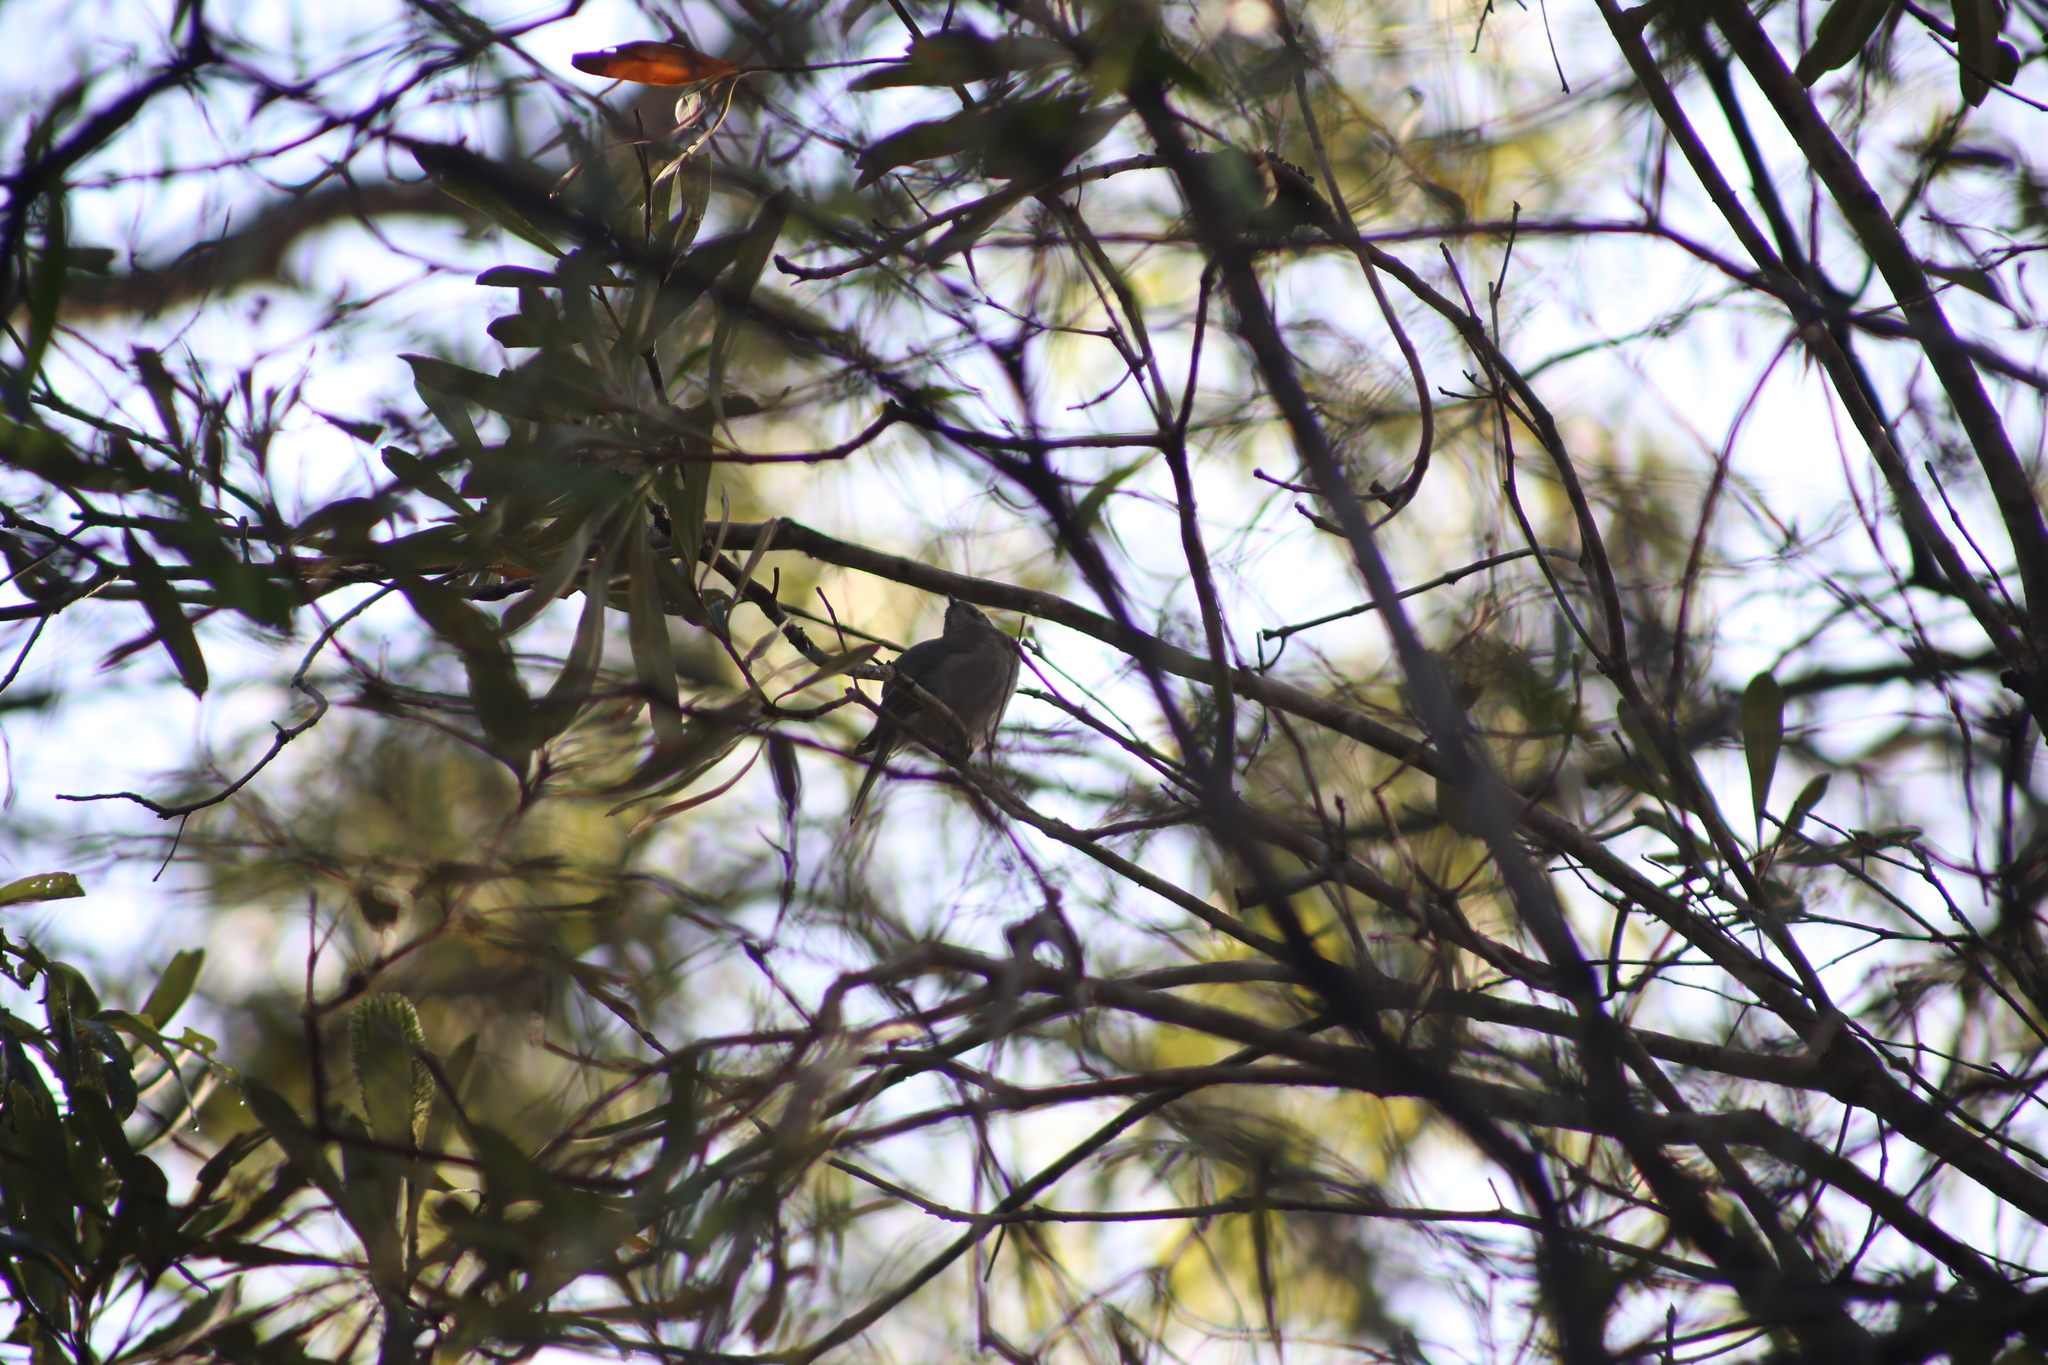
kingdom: Animalia
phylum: Chordata
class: Aves
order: Passeriformes
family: Meliphagidae
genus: Caligavis
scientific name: Caligavis chrysops
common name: Yellow-faced honeyeater
